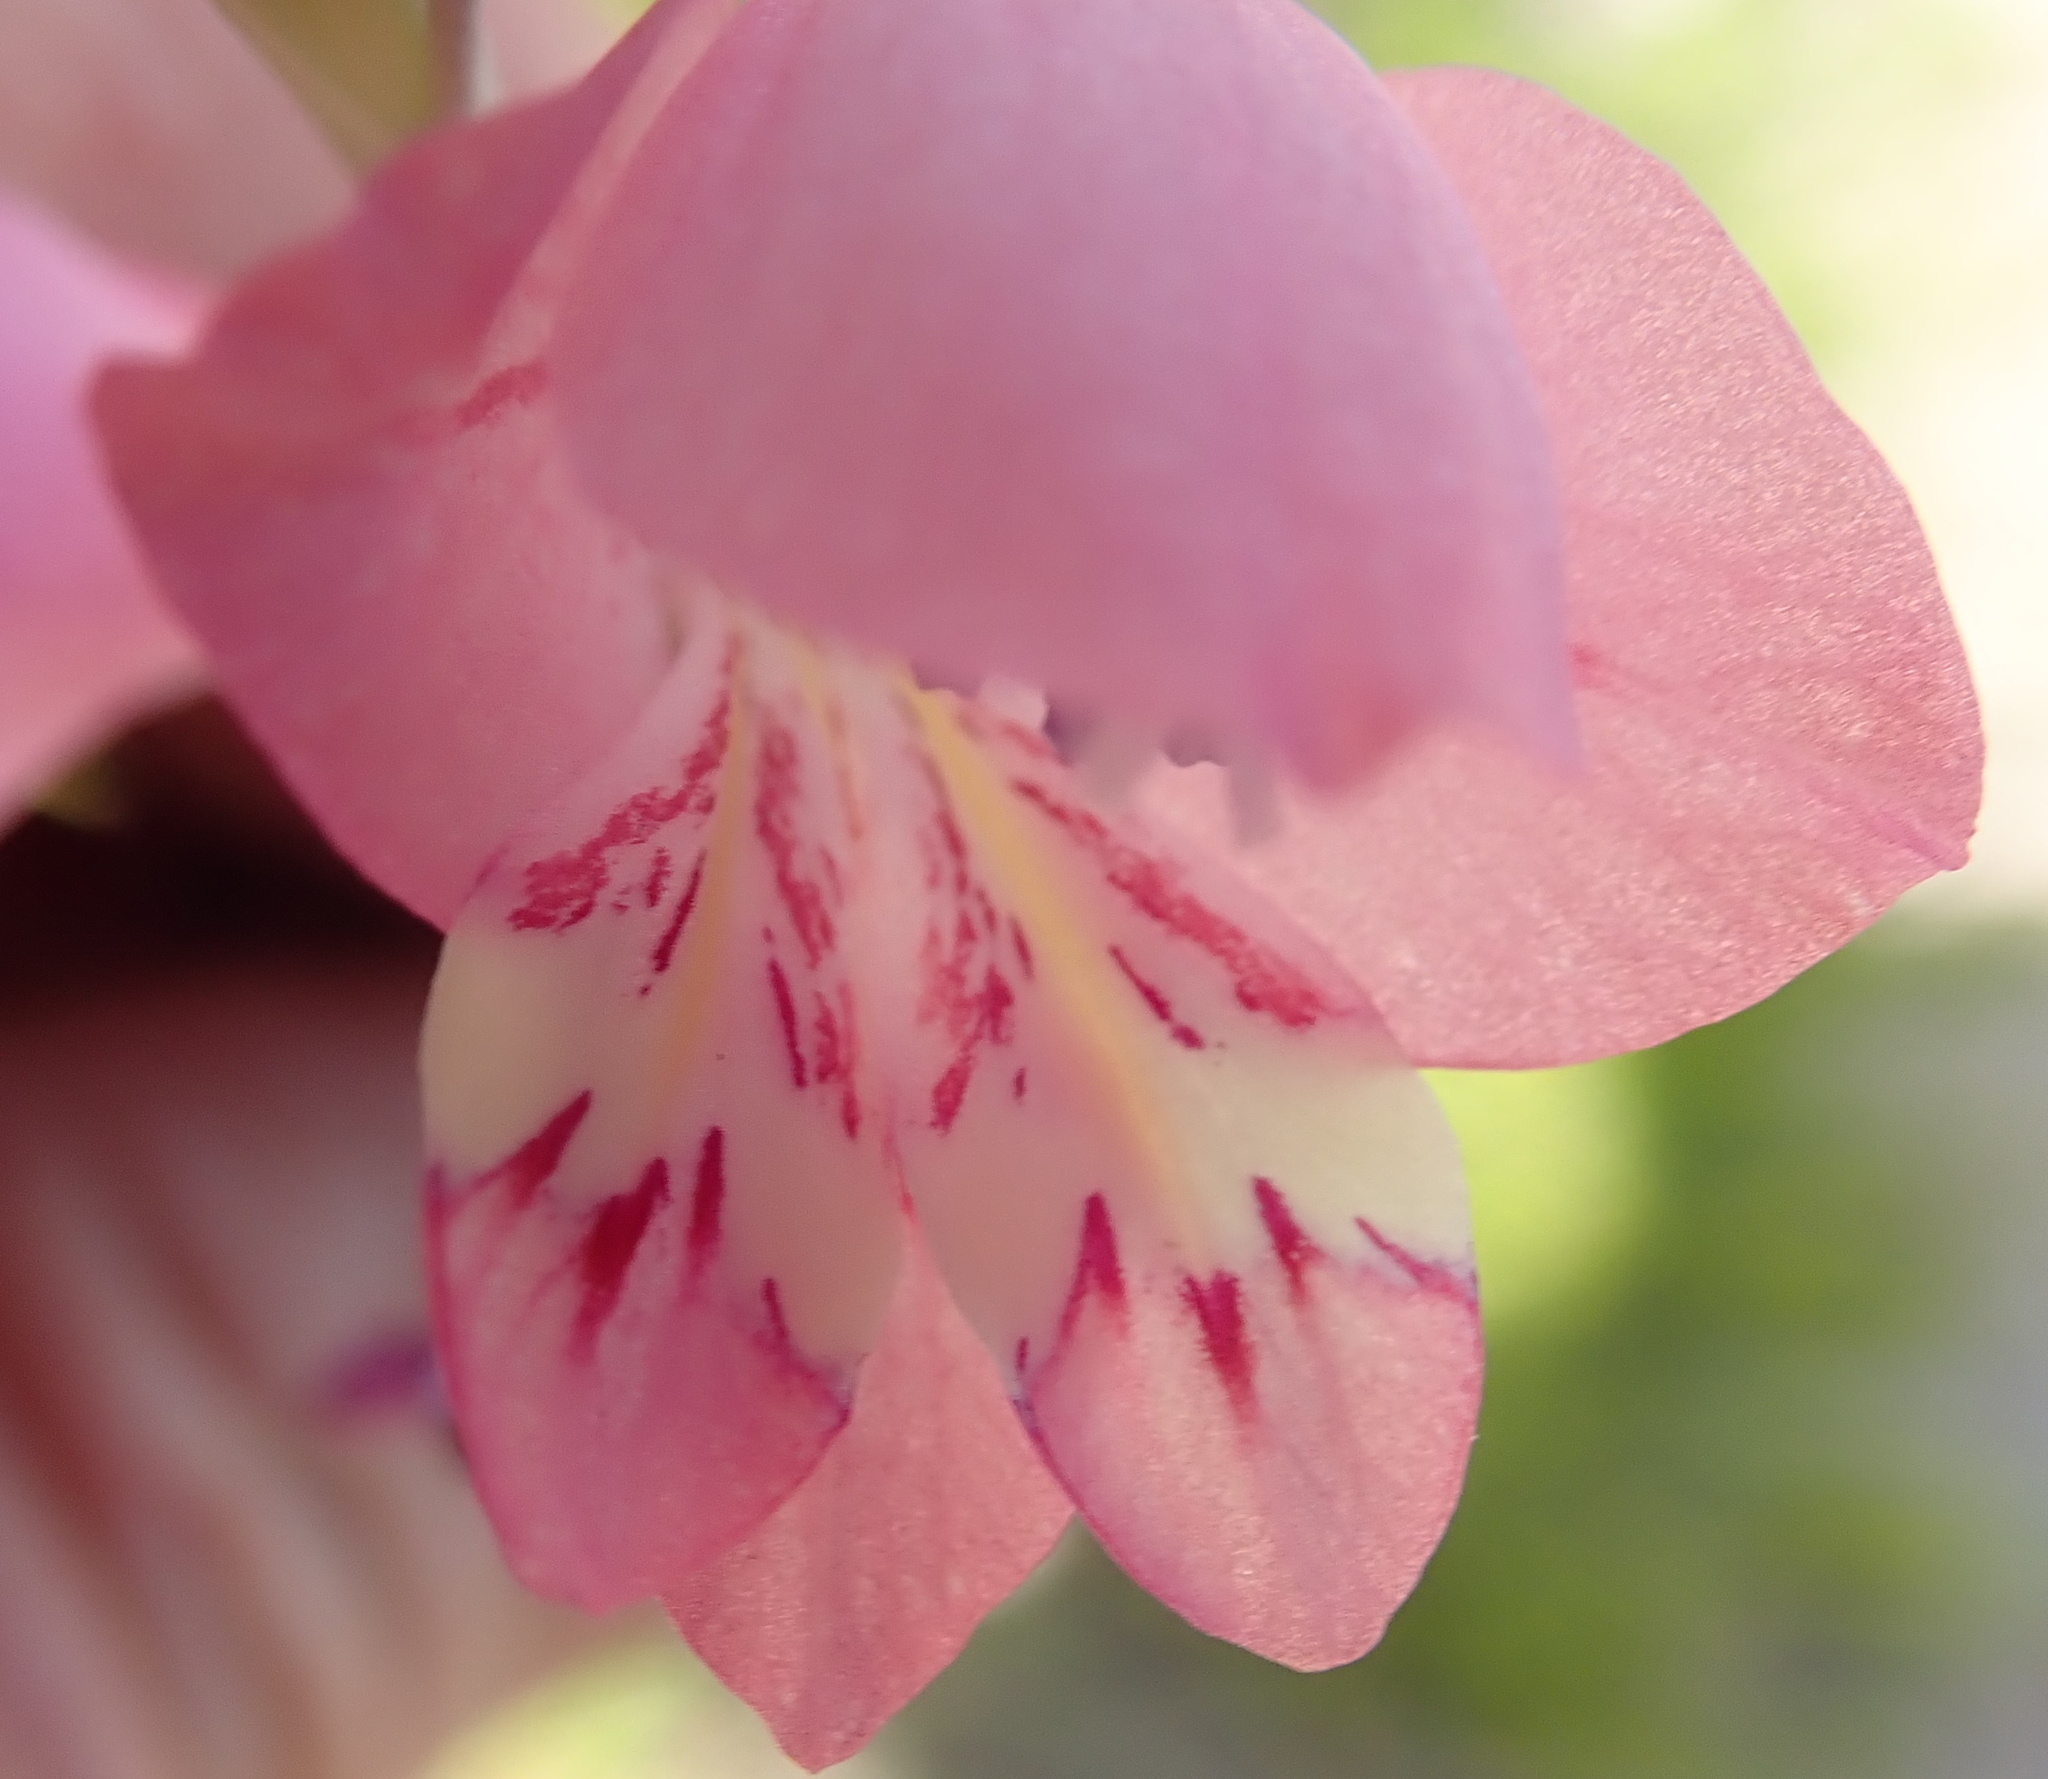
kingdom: Plantae
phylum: Tracheophyta
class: Liliopsida
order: Asparagales
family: Iridaceae
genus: Gladiolus
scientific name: Gladiolus martleyi
